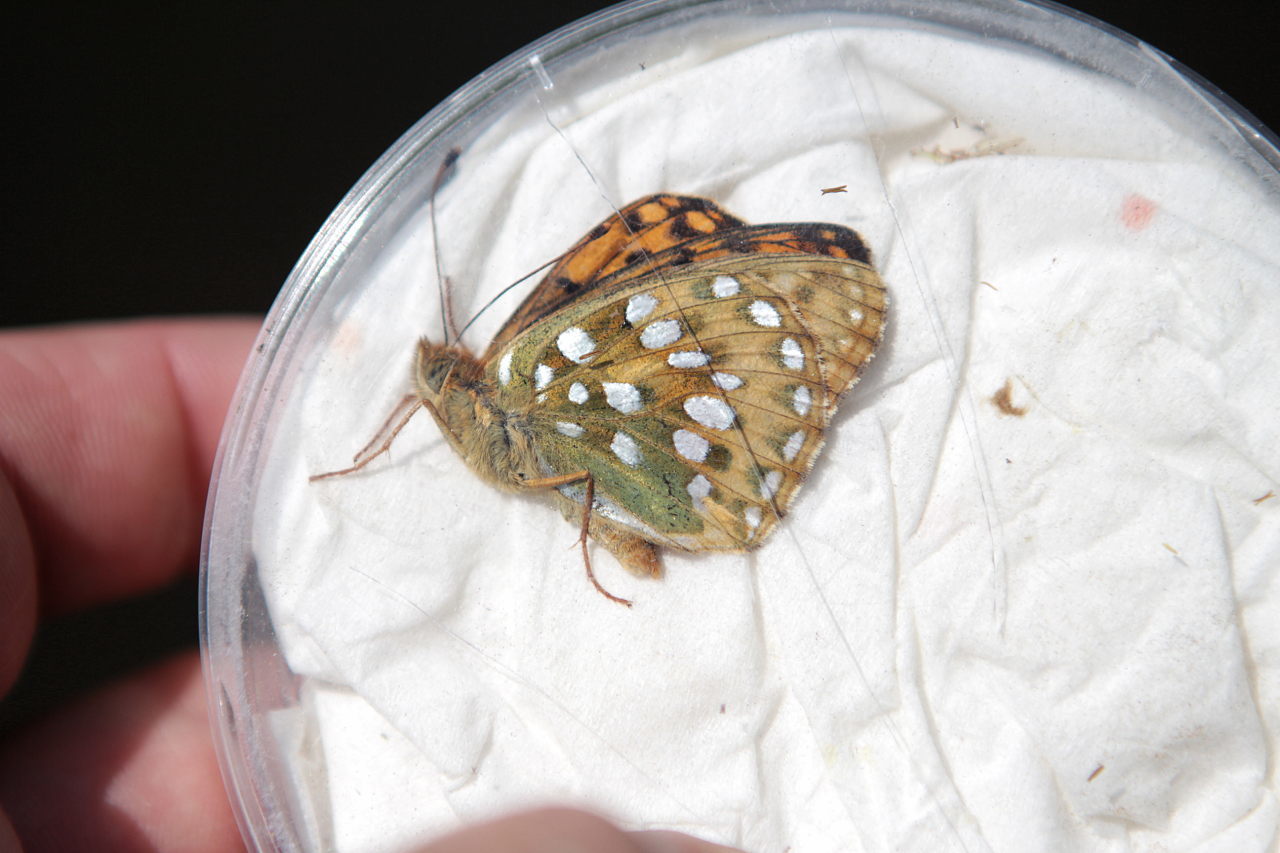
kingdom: Animalia
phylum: Arthropoda
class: Insecta
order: Lepidoptera
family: Nymphalidae
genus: Speyeria
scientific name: Speyeria aglaja
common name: Dark green fritillary
